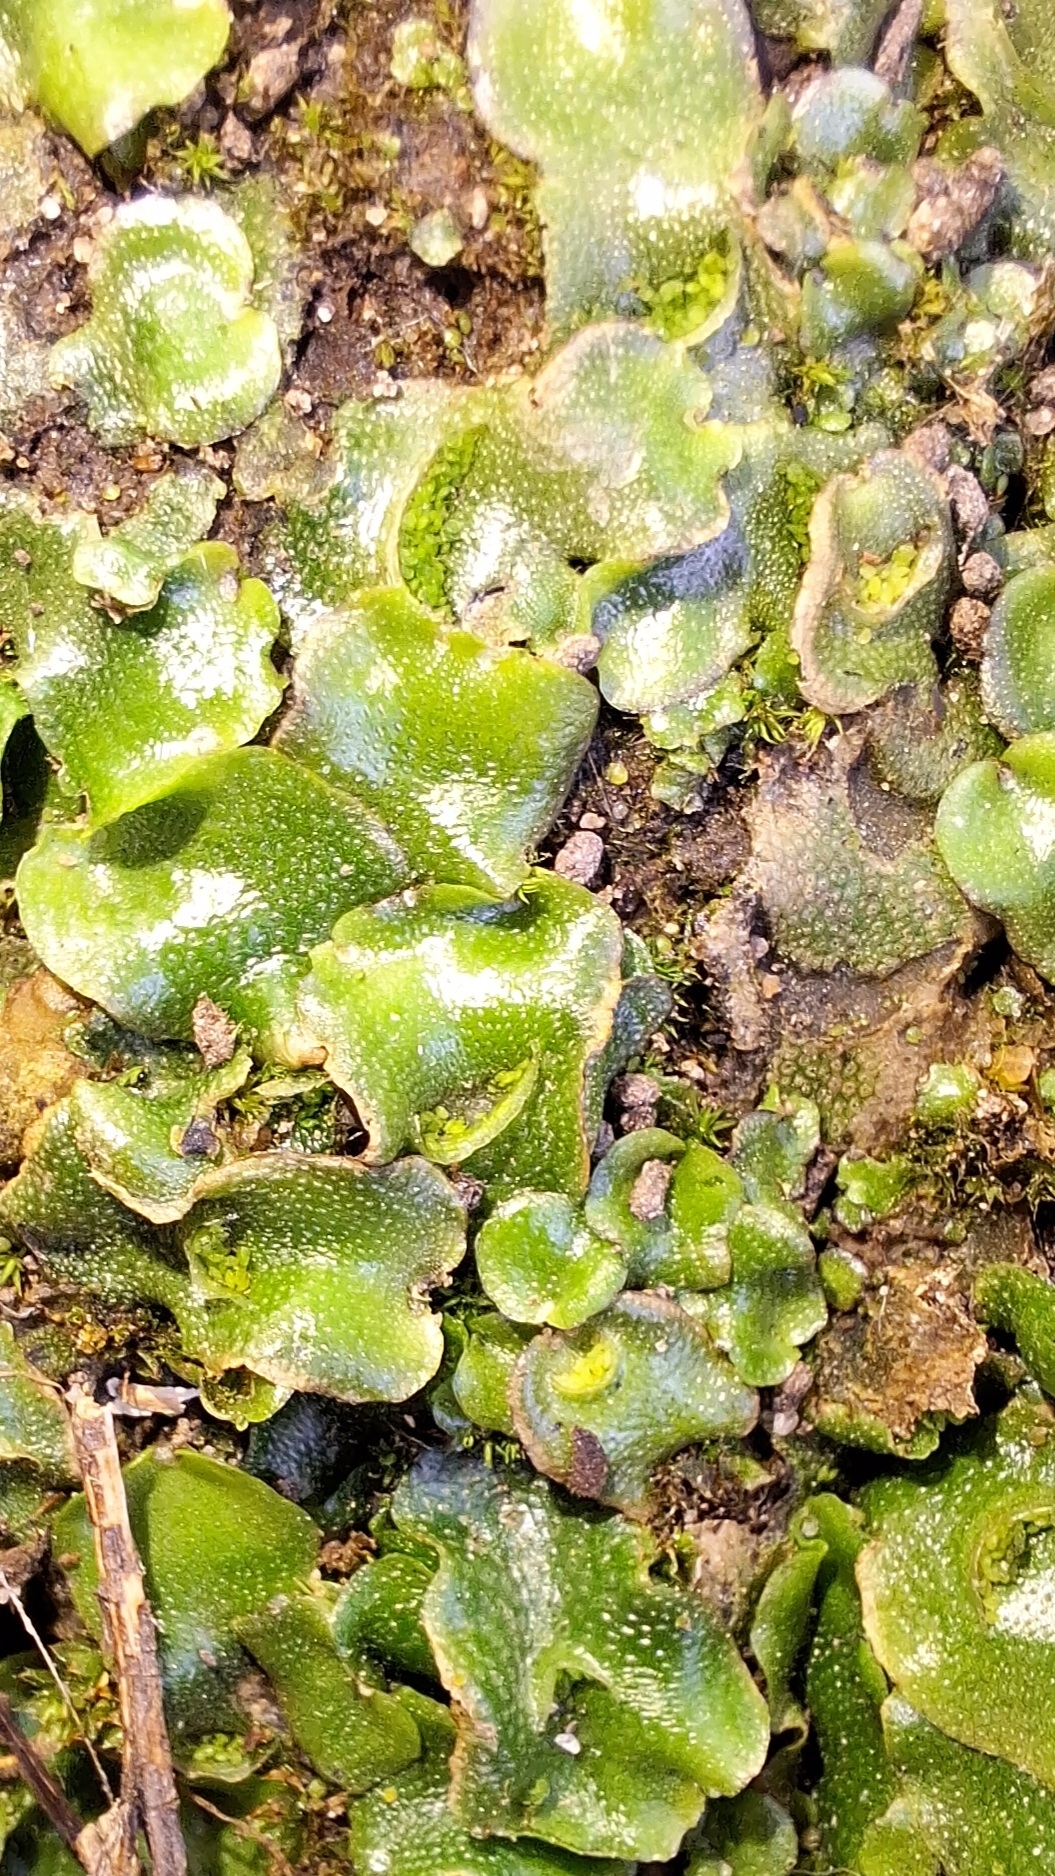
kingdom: Plantae
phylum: Marchantiophyta
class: Marchantiopsida
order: Lunulariales
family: Lunulariaceae
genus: Lunularia
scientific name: Lunularia cruciata
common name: Crescent-cup liverwort
